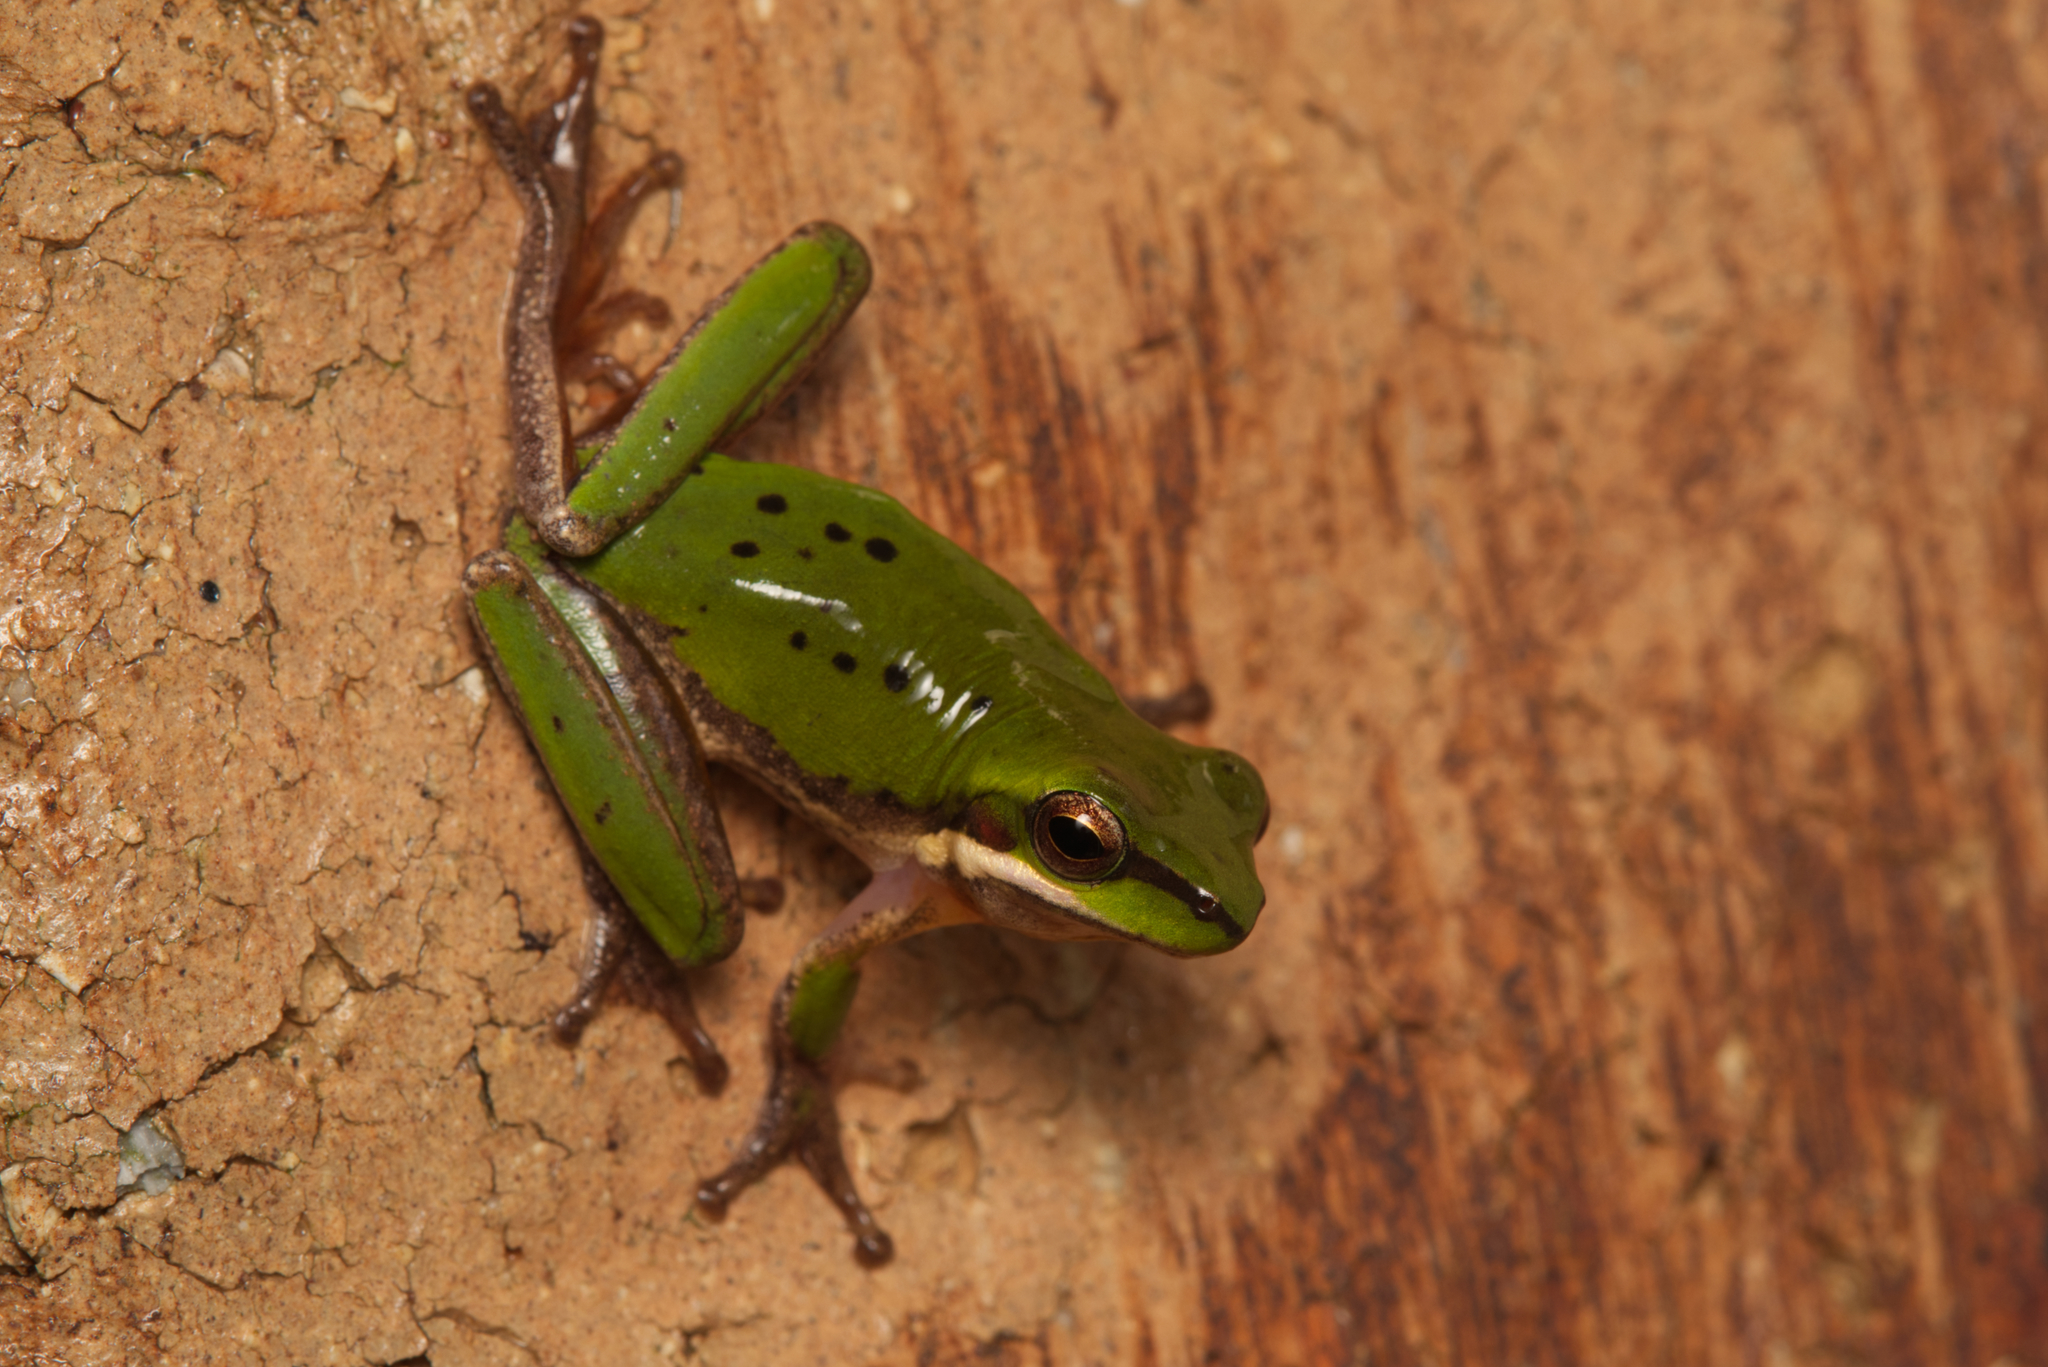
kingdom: Animalia
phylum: Chordata
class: Amphibia
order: Anura
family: Pelodryadidae
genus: Litoria
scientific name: Litoria fallax
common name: Eastern dwarf treefrog
